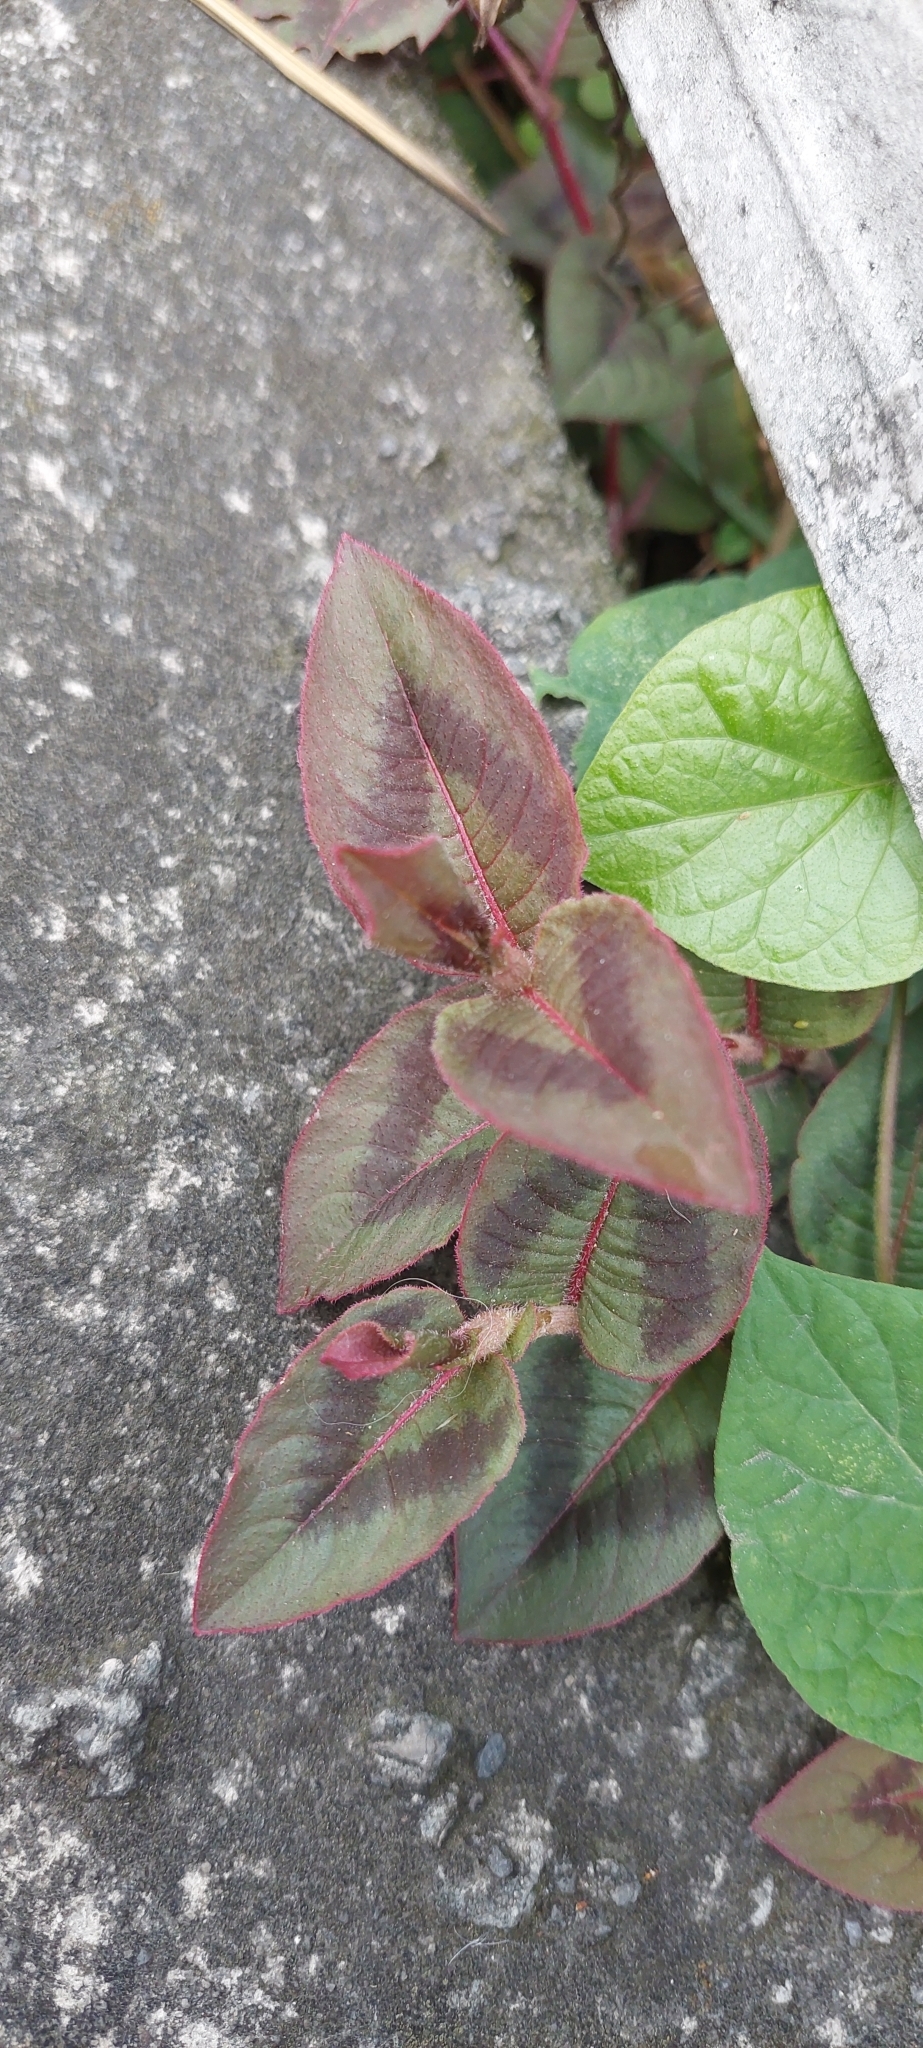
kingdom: Plantae
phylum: Tracheophyta
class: Magnoliopsida
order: Caryophyllales
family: Polygonaceae
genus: Persicaria
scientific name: Persicaria capitata
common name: Pinkhead smartweed
